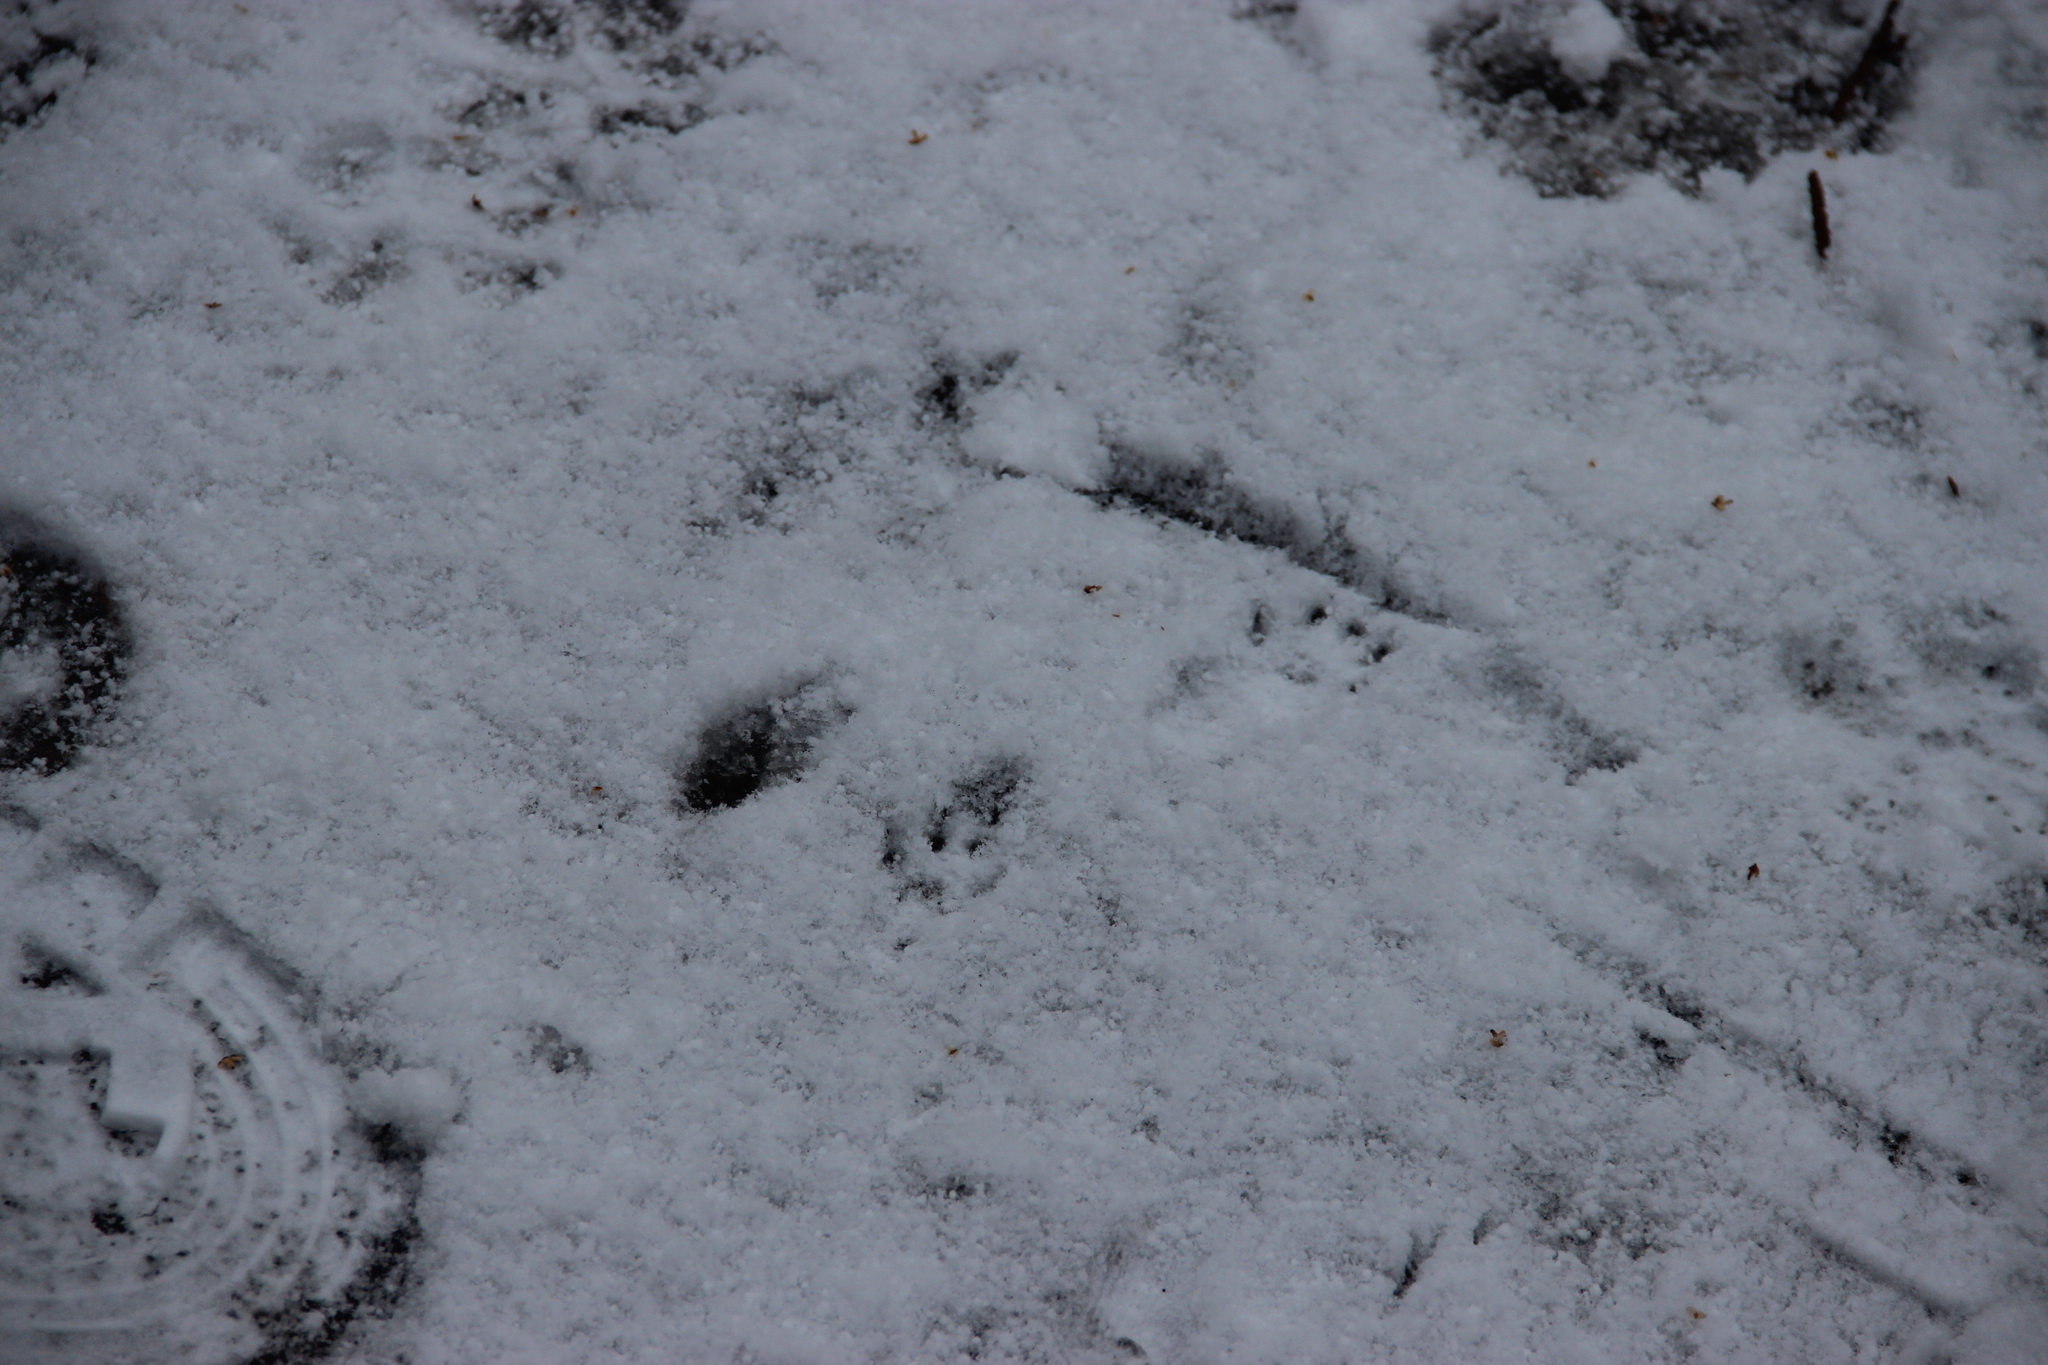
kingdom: Animalia
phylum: Chordata
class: Mammalia
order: Rodentia
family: Sciuridae
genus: Sciurus
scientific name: Sciurus vulgaris
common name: Eurasian red squirrel
